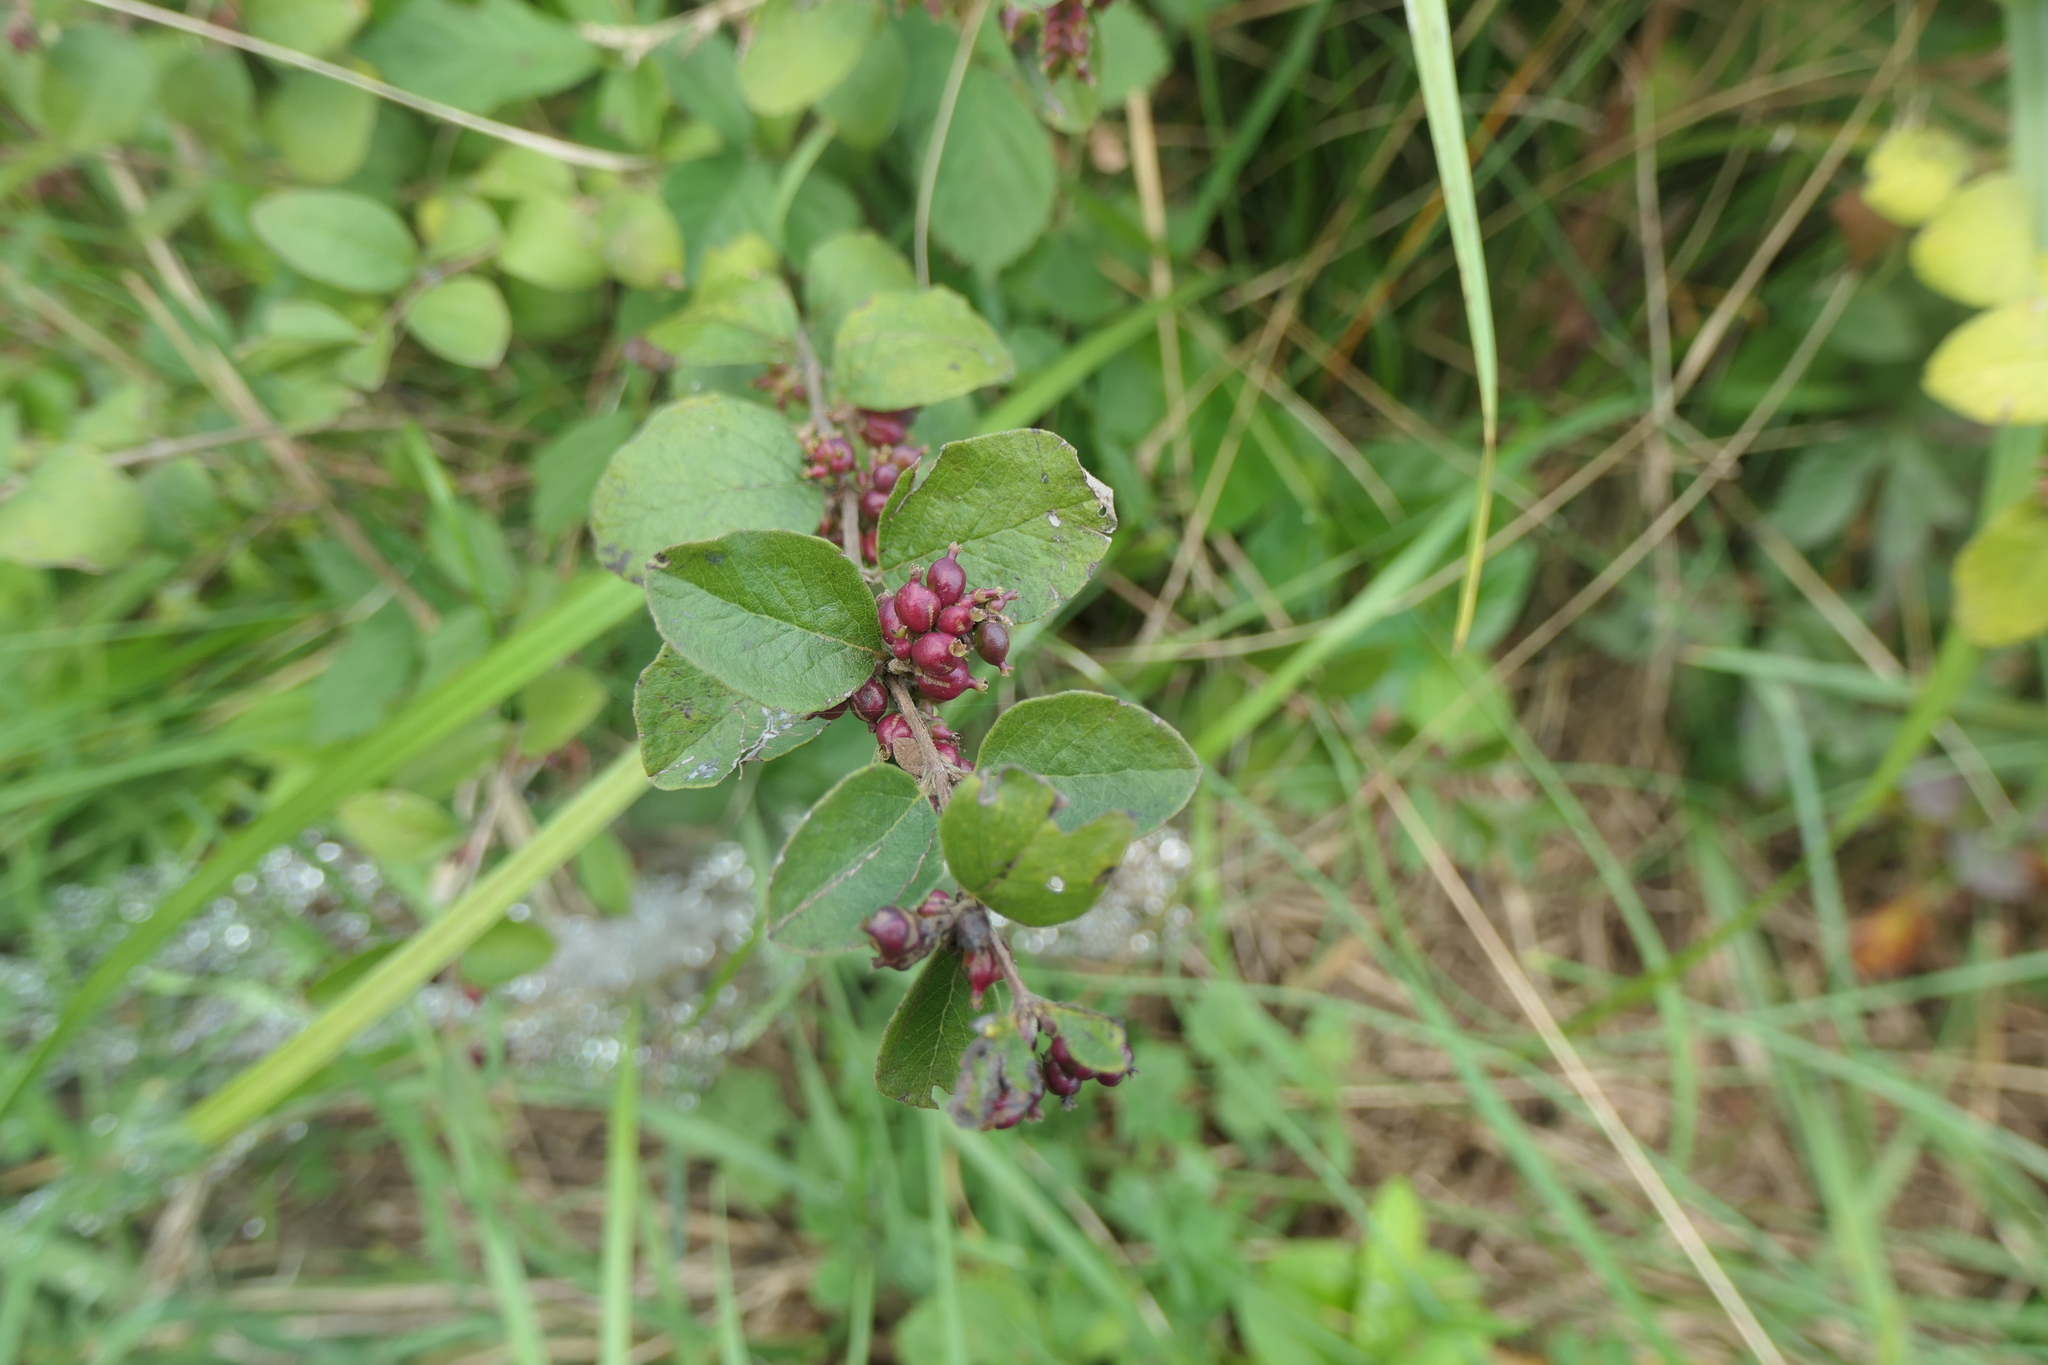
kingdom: Plantae
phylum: Tracheophyta
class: Magnoliopsida
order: Dipsacales
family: Caprifoliaceae
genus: Symphoricarpos
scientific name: Symphoricarpos orbiculatus
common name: Coralberry
